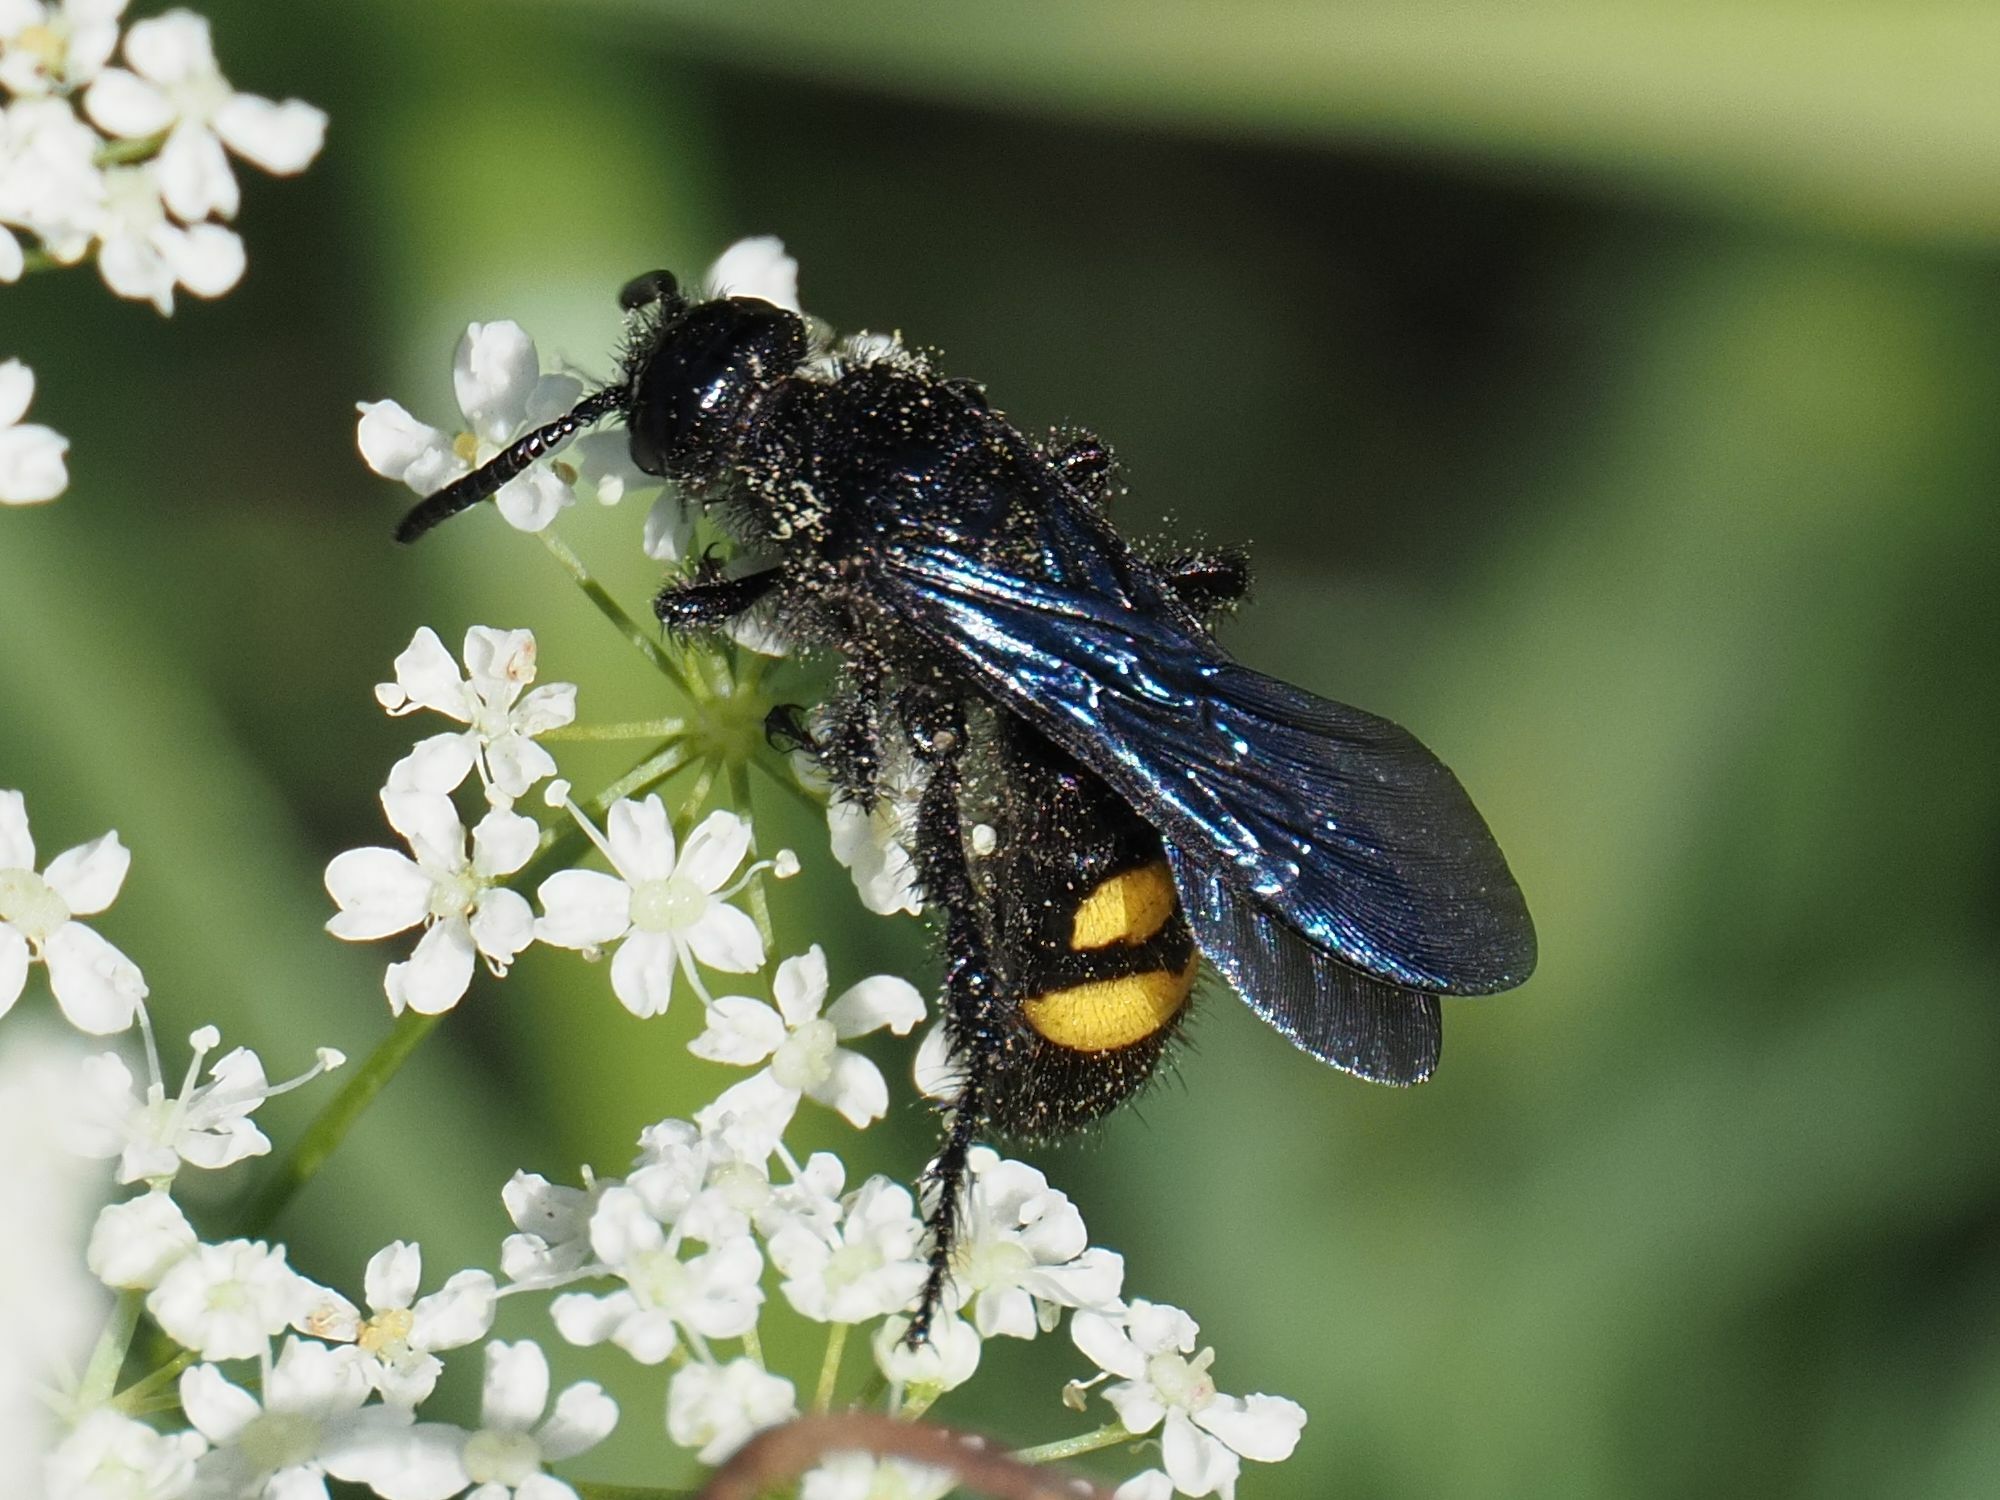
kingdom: Animalia
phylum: Arthropoda
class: Insecta
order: Hymenoptera
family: Scoliidae
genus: Scolia
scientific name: Scolia hirta
